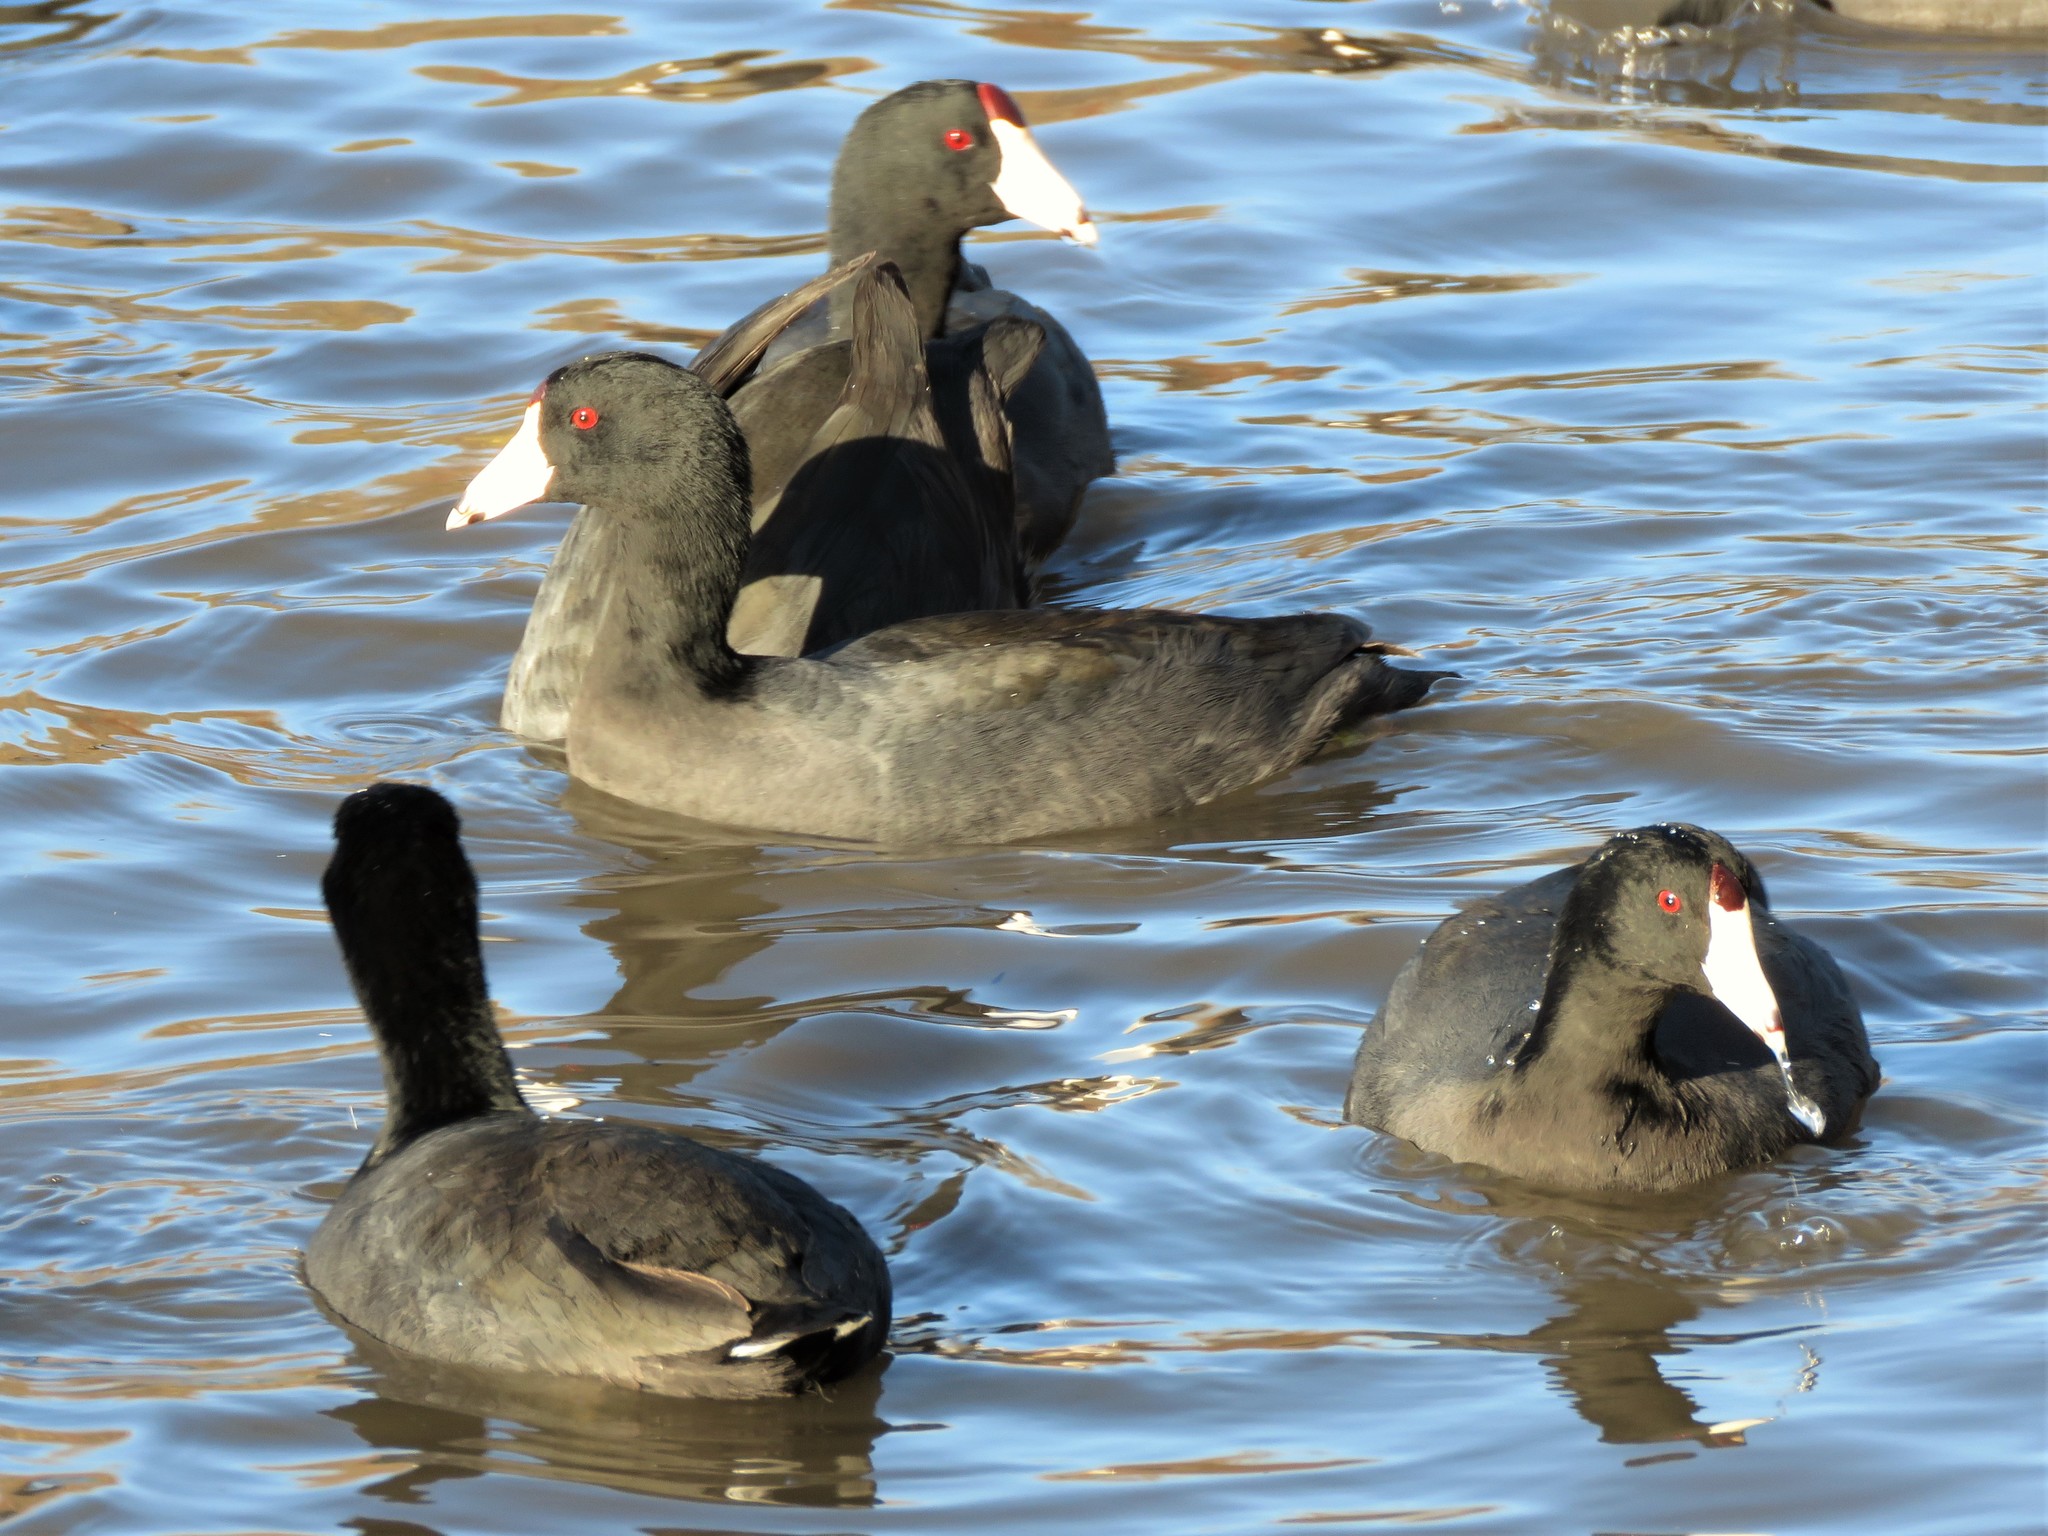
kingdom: Animalia
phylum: Chordata
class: Aves
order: Gruiformes
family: Rallidae
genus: Fulica
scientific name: Fulica americana
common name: American coot
